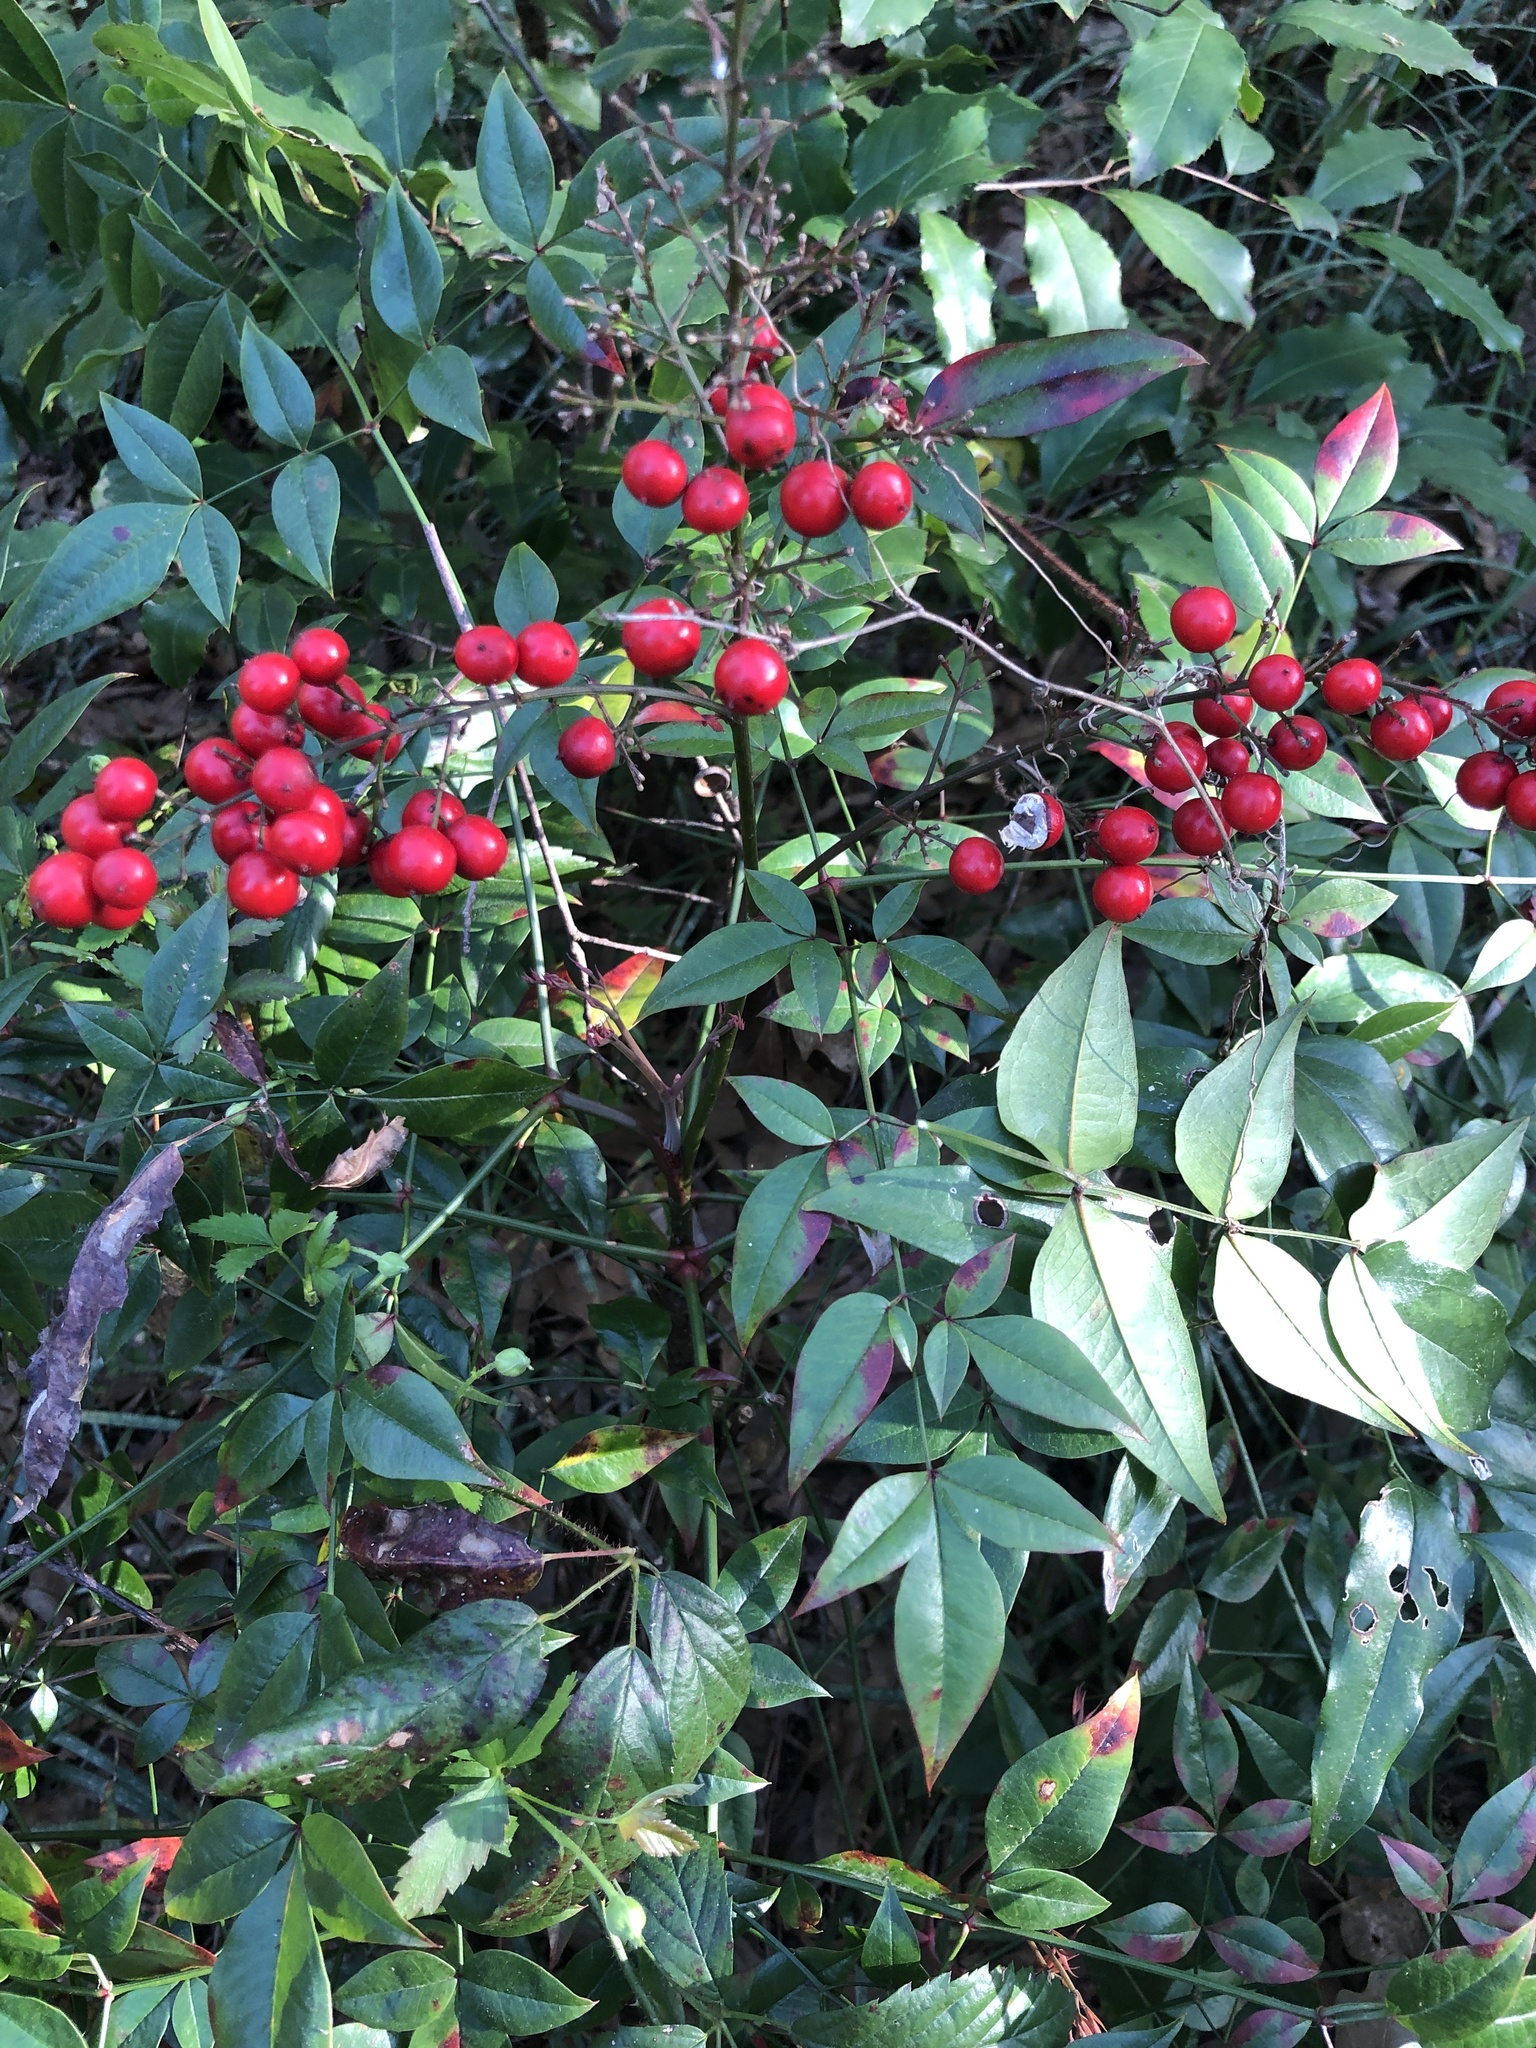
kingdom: Plantae
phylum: Tracheophyta
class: Magnoliopsida
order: Ranunculales
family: Berberidaceae
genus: Nandina
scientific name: Nandina domestica
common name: Sacred bamboo
